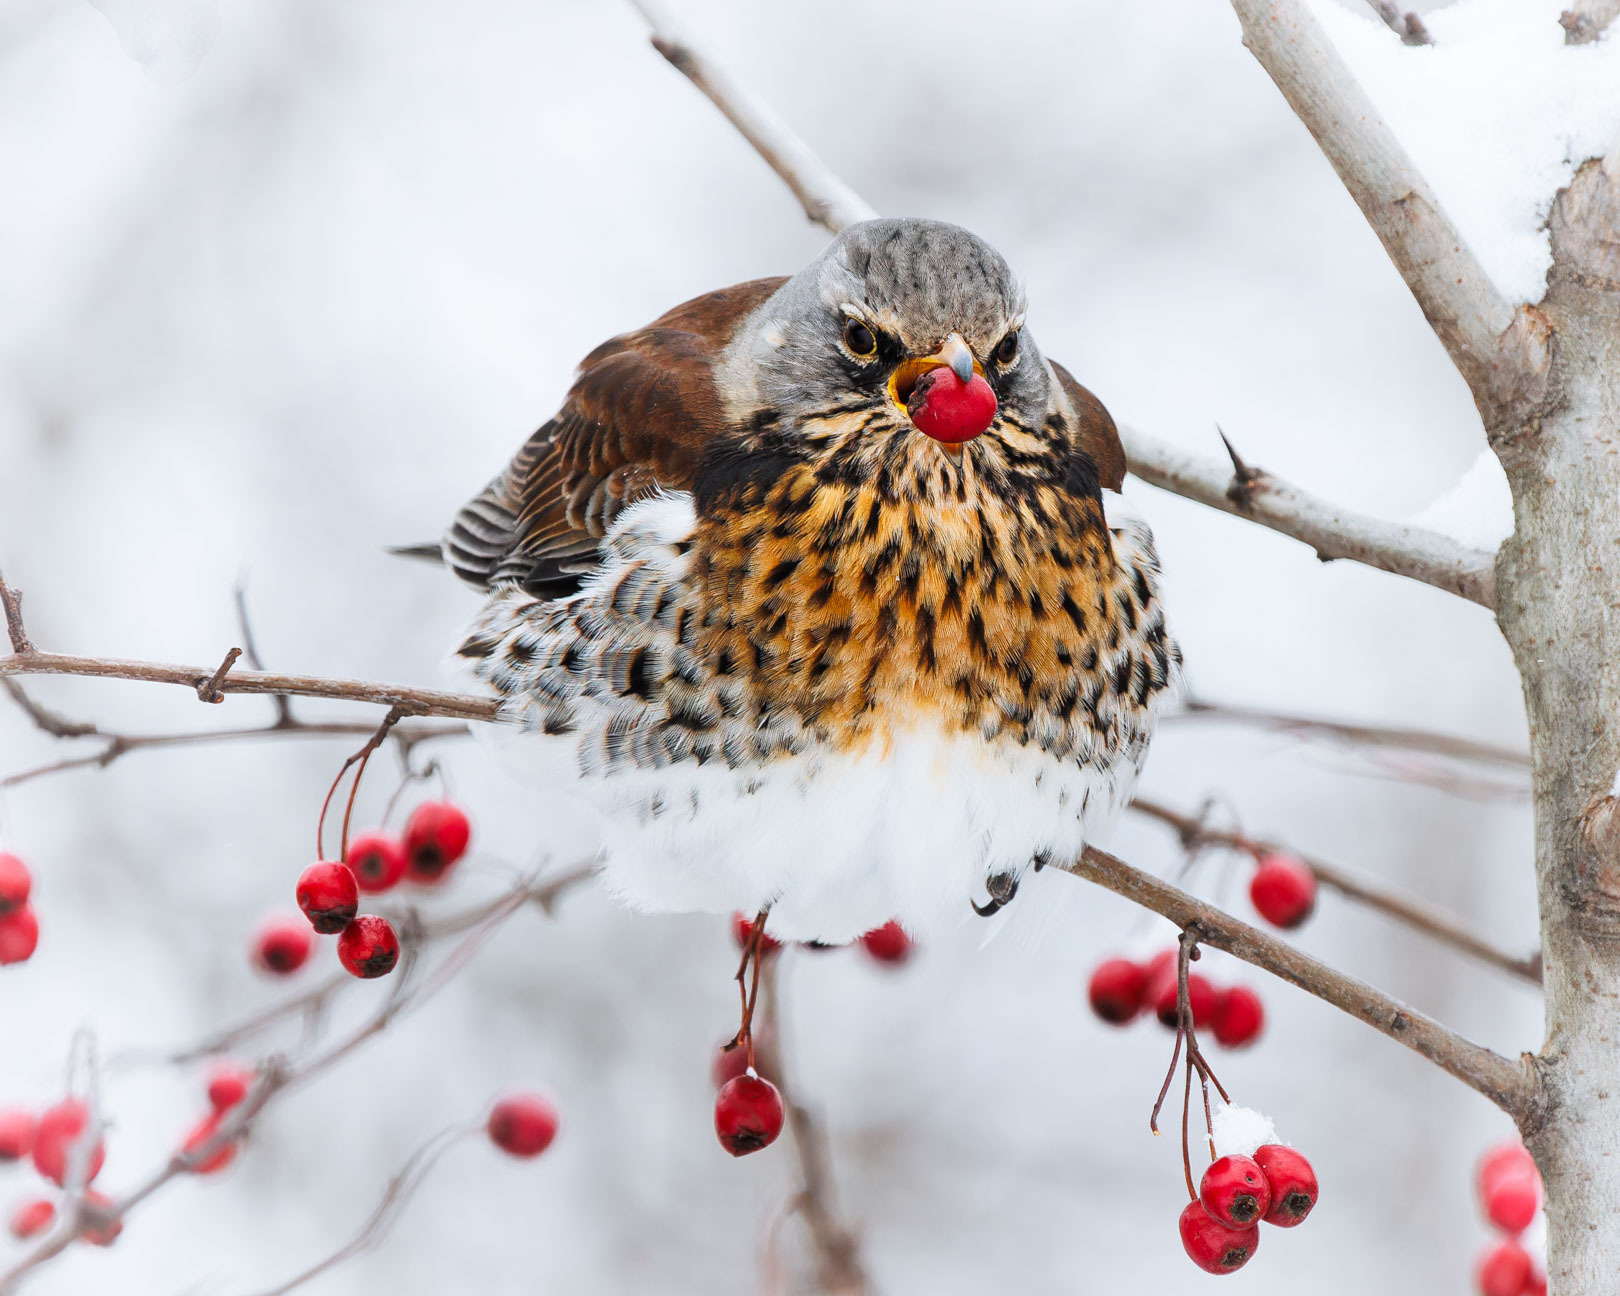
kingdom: Animalia
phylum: Chordata
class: Aves
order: Passeriformes
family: Turdidae
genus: Turdus
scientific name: Turdus pilaris
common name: Fieldfare
